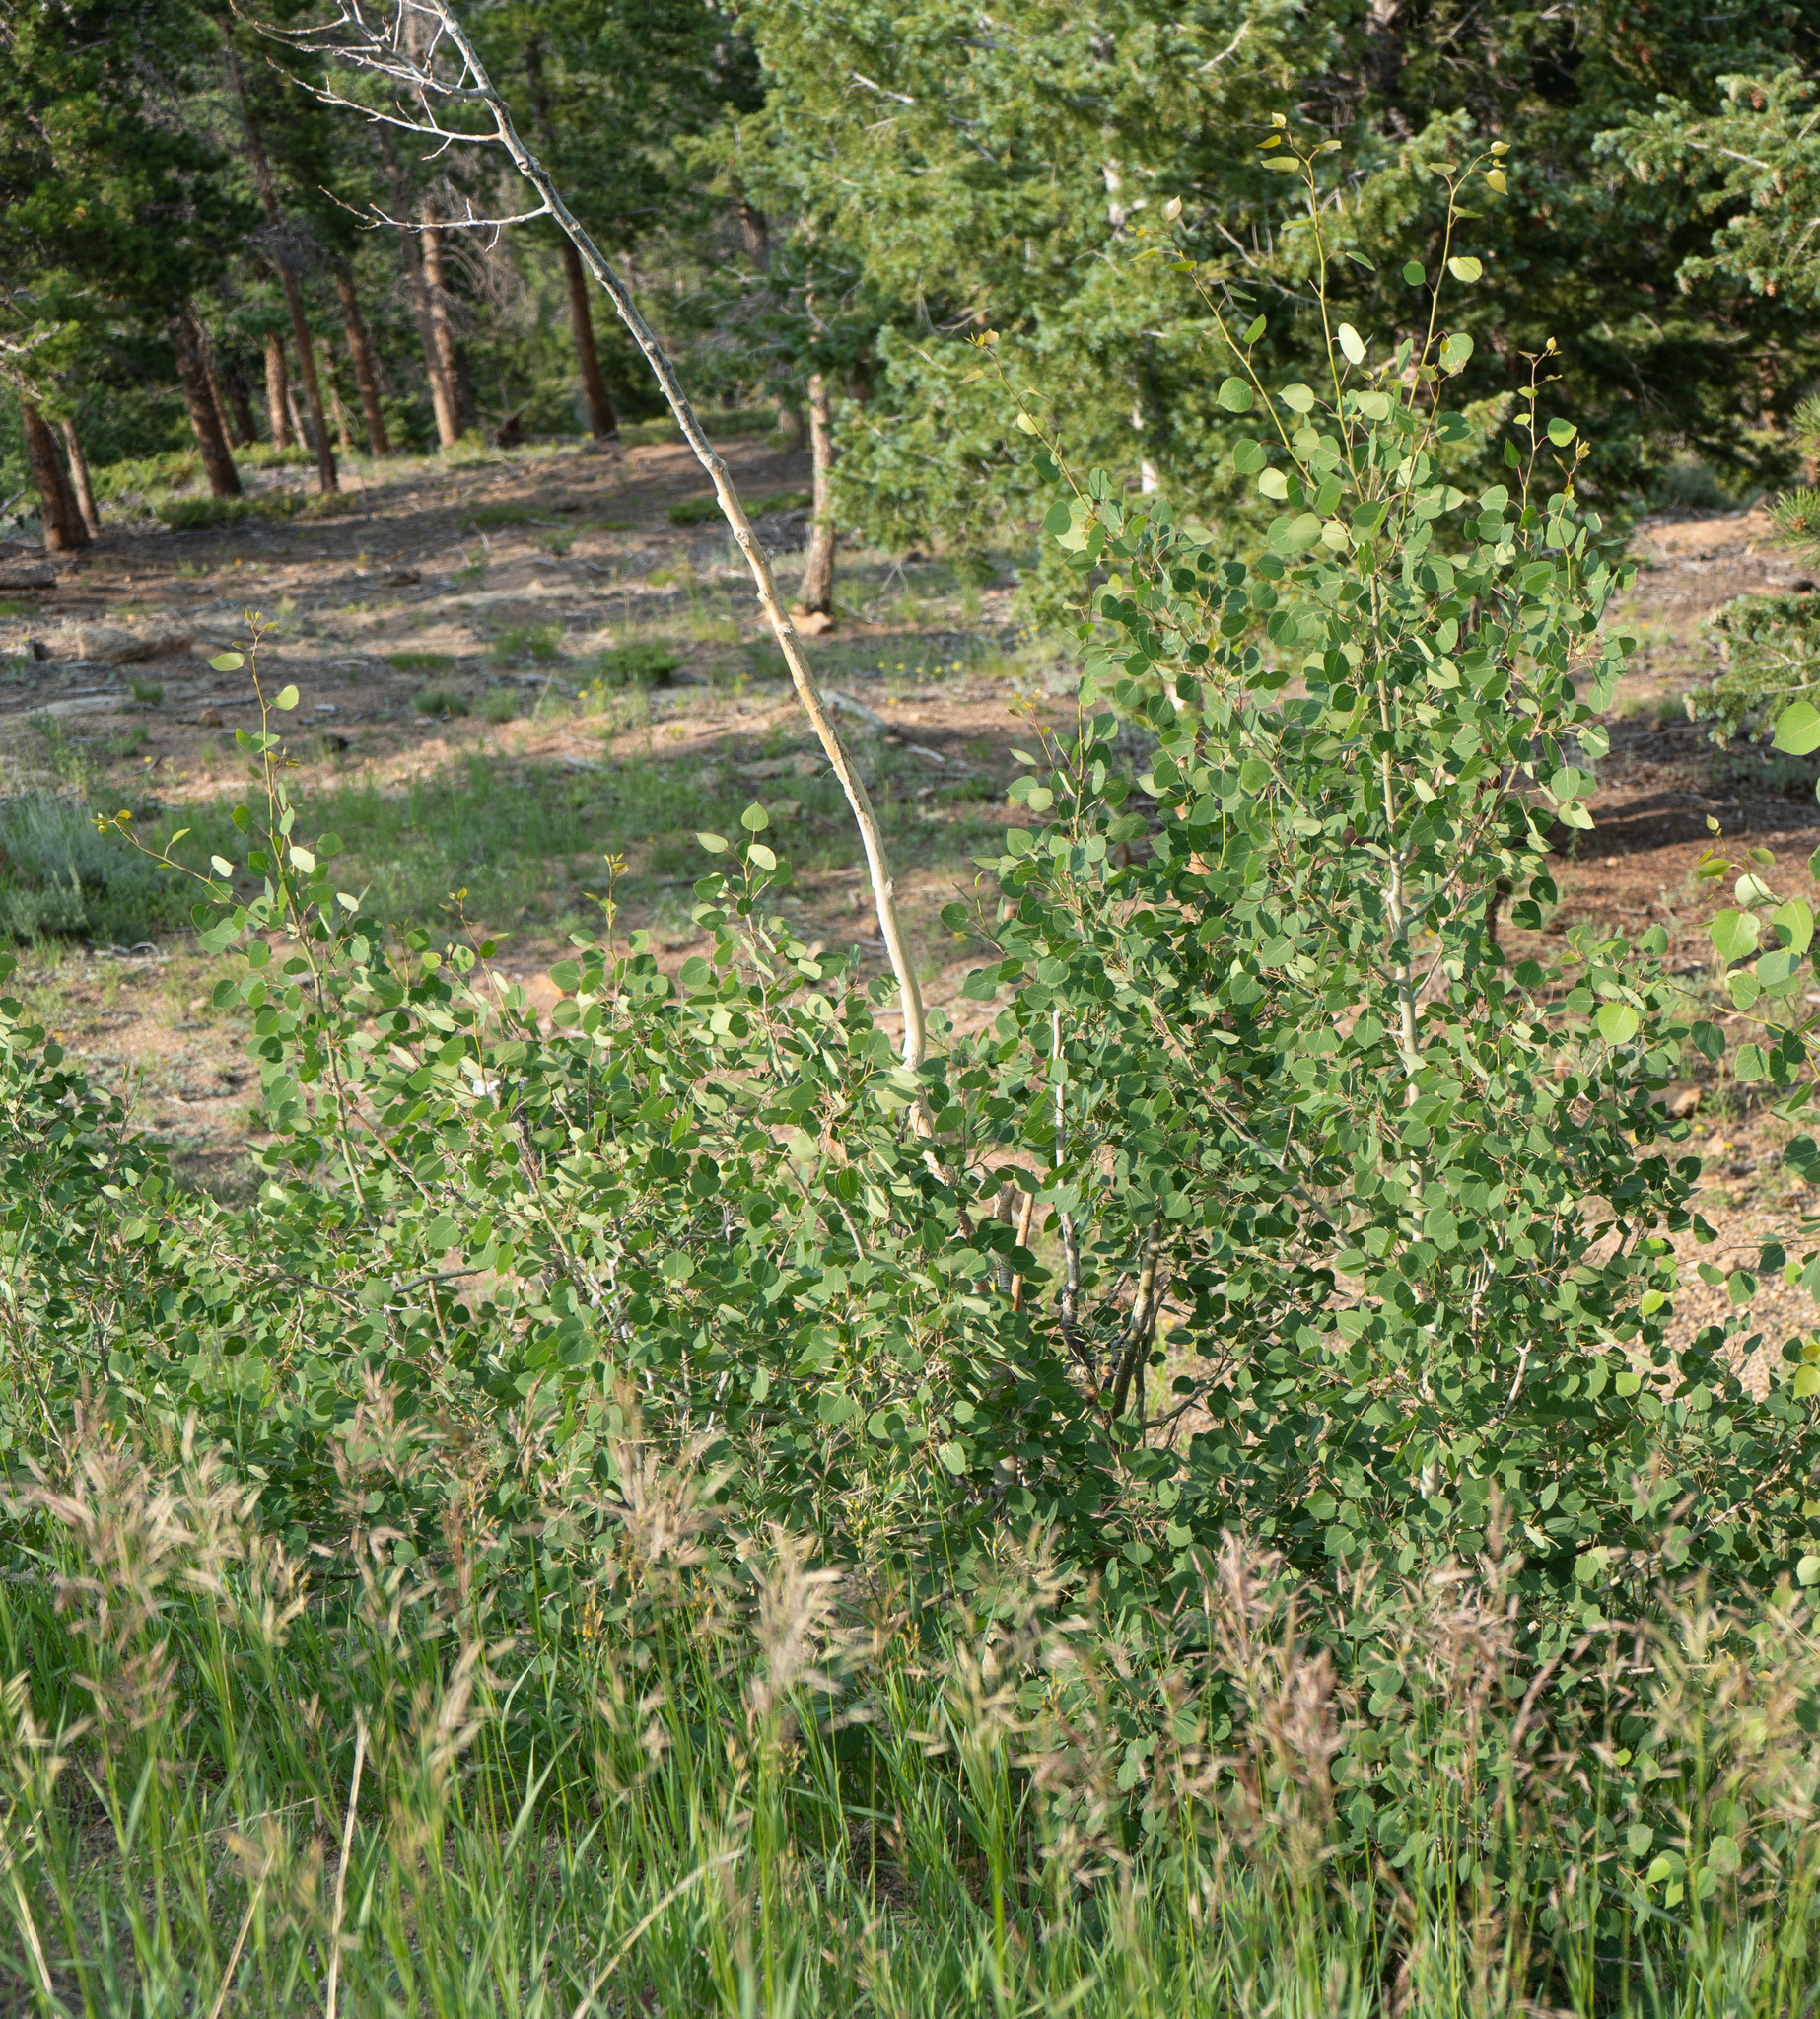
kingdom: Plantae
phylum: Tracheophyta
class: Magnoliopsida
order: Malpighiales
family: Salicaceae
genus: Populus
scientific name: Populus tremuloides
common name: Quaking aspen
